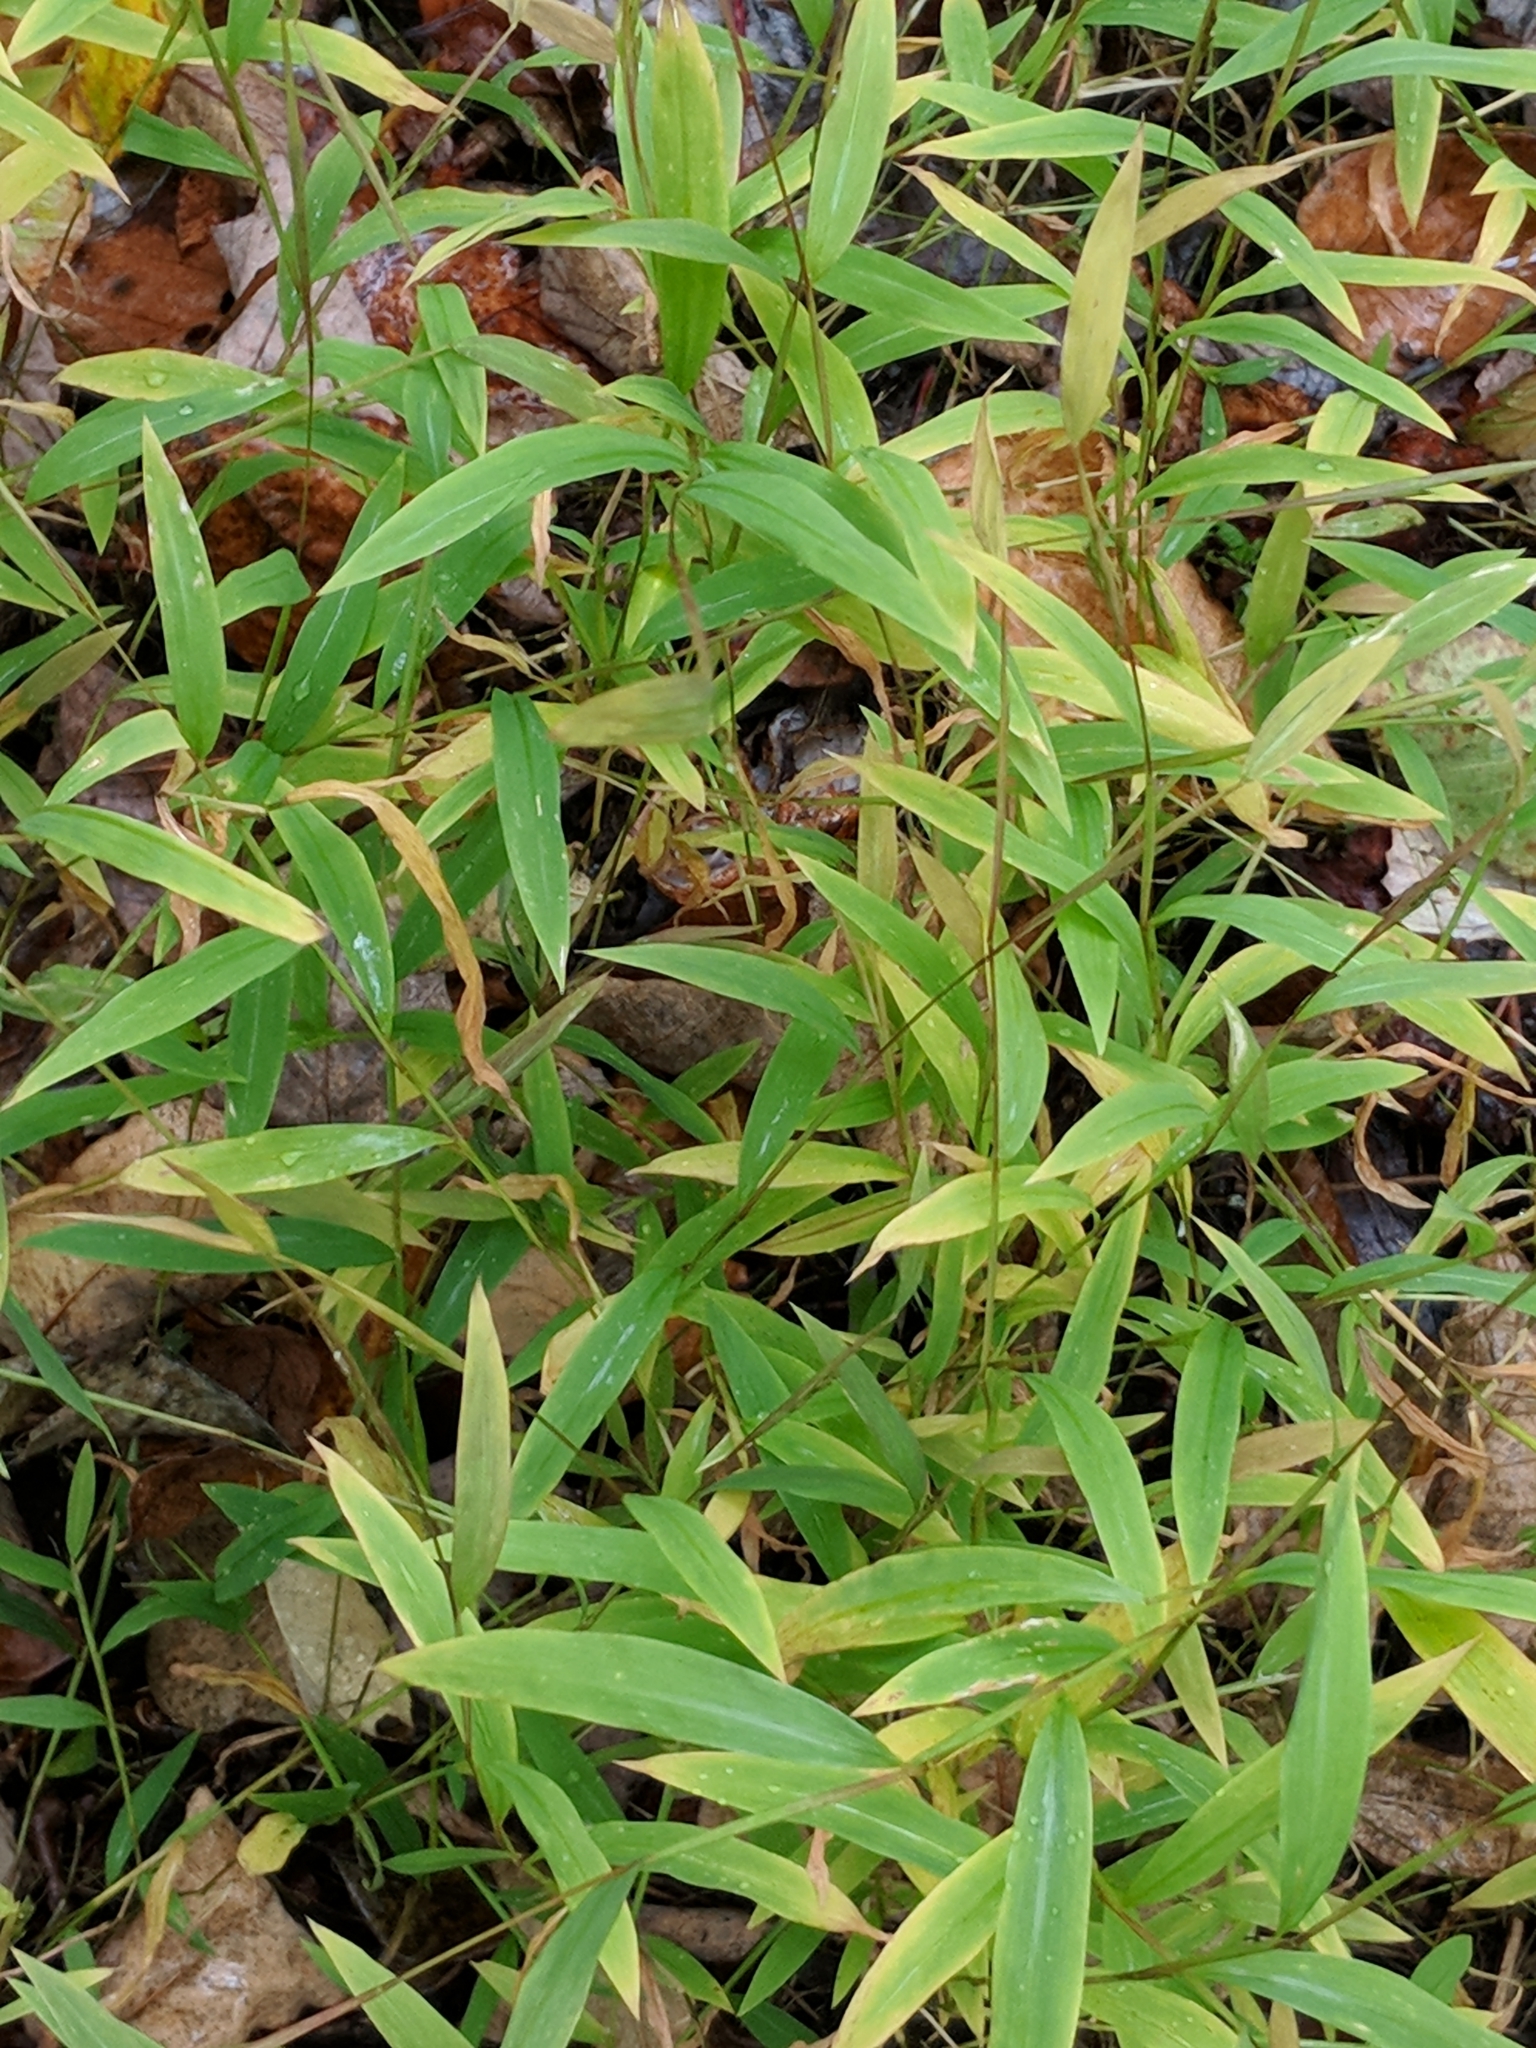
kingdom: Plantae
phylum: Tracheophyta
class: Liliopsida
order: Poales
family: Poaceae
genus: Microstegium
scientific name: Microstegium vimineum
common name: Japanese stiltgrass
